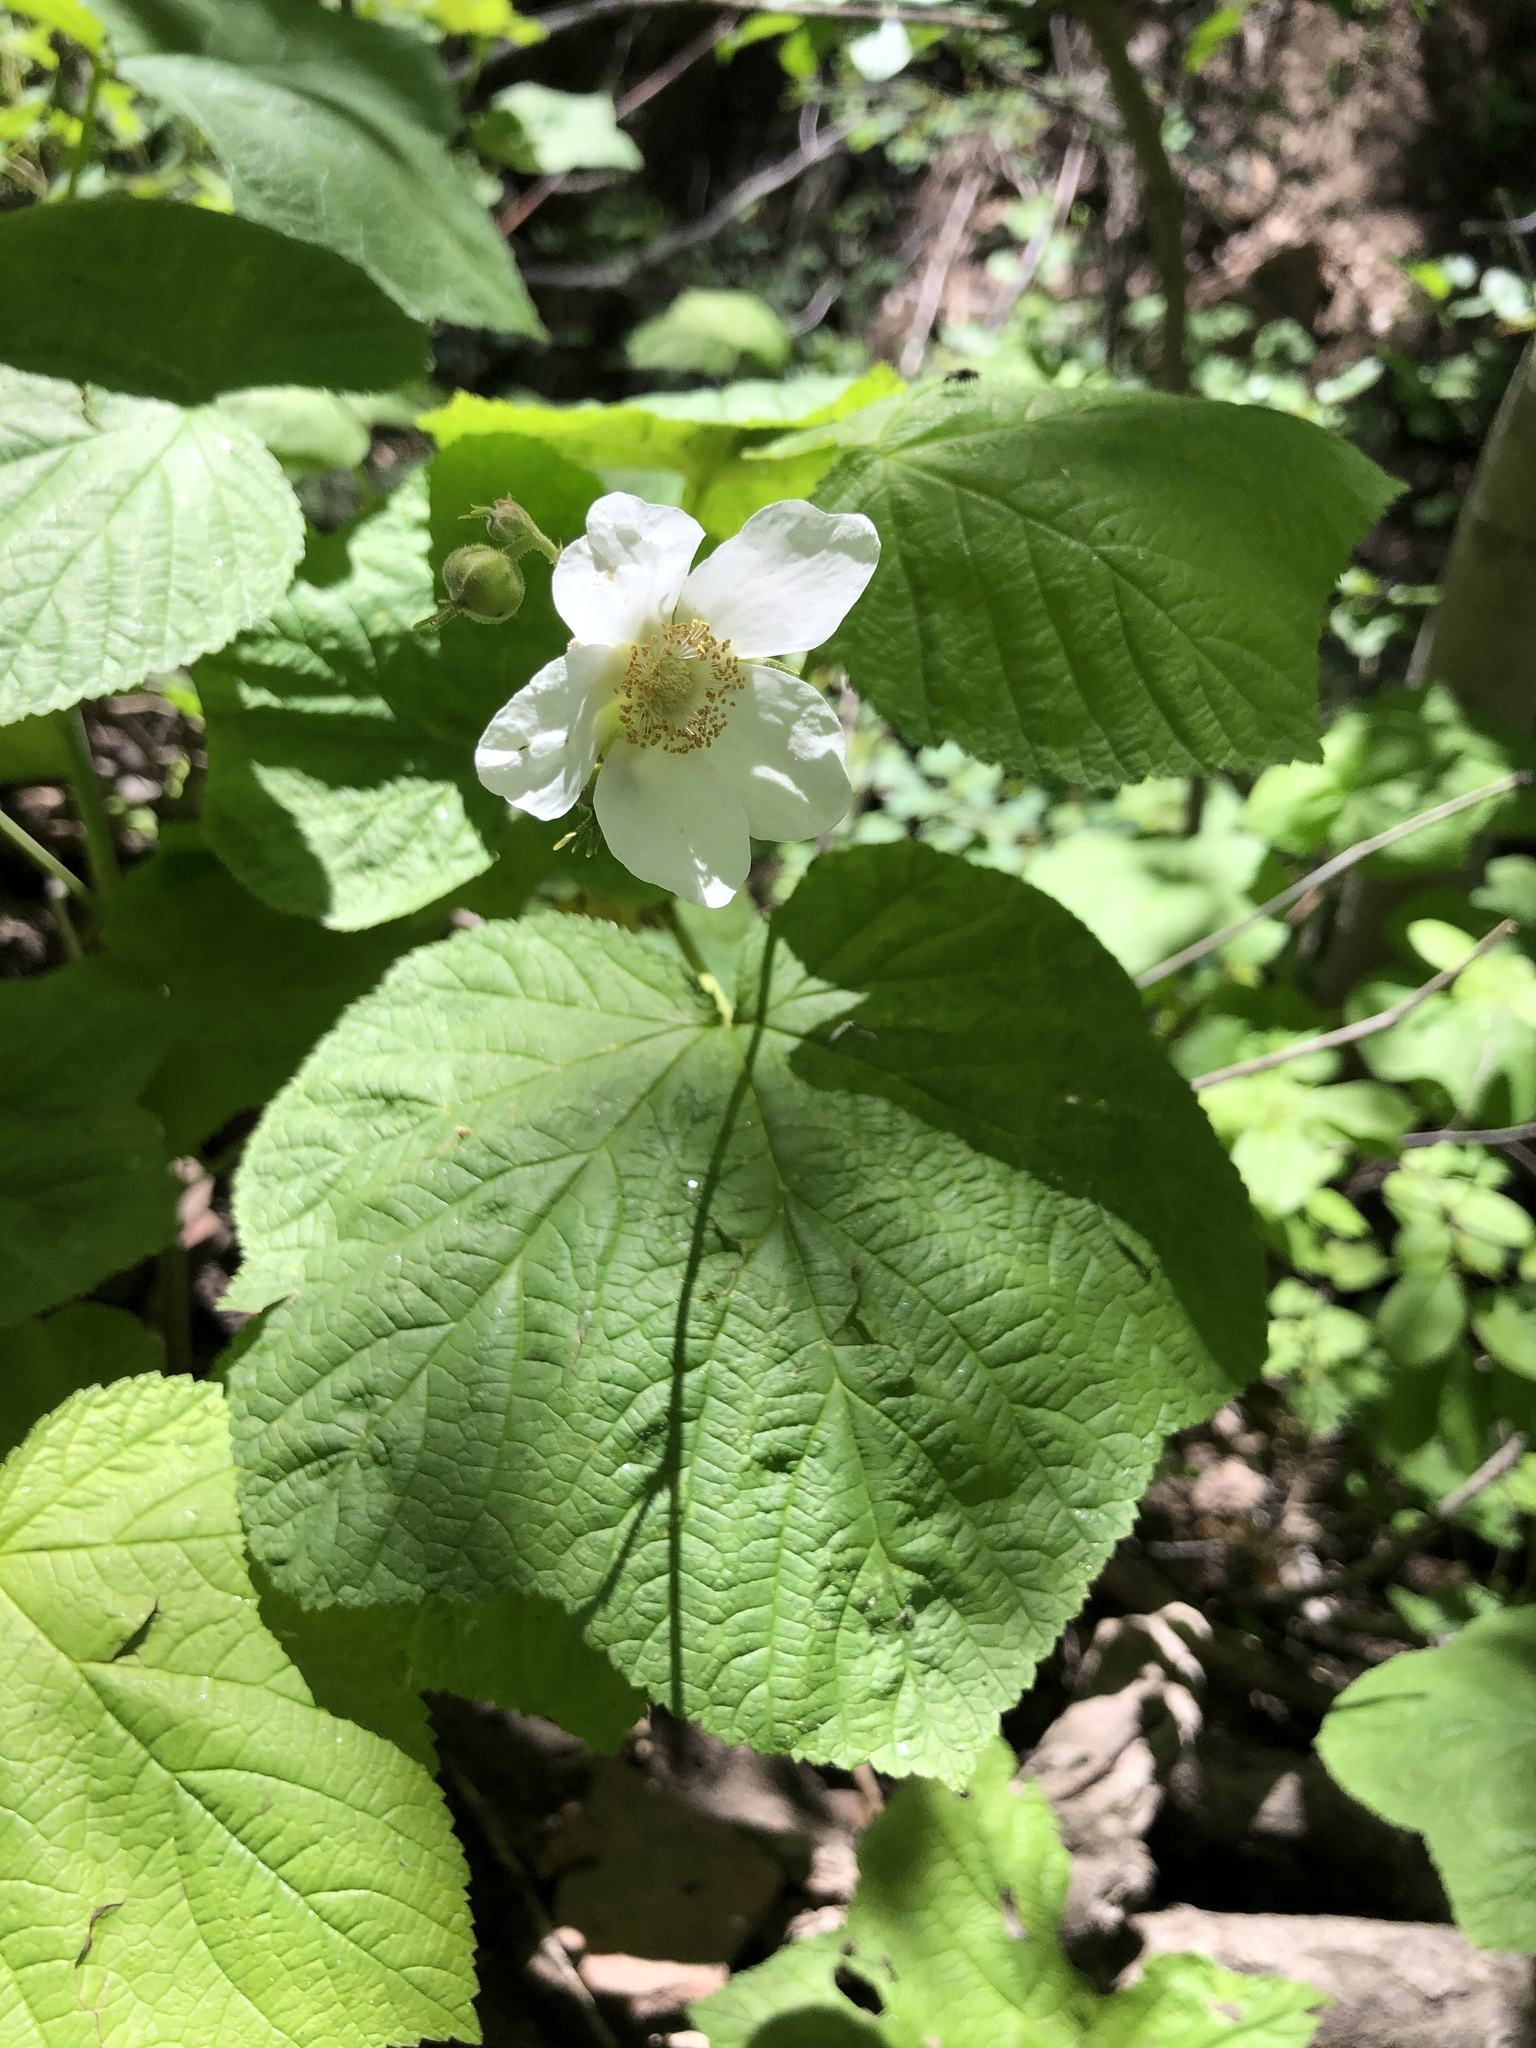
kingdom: Plantae
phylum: Tracheophyta
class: Magnoliopsida
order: Rosales
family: Rosaceae
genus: Rubus
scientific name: Rubus parviflorus
